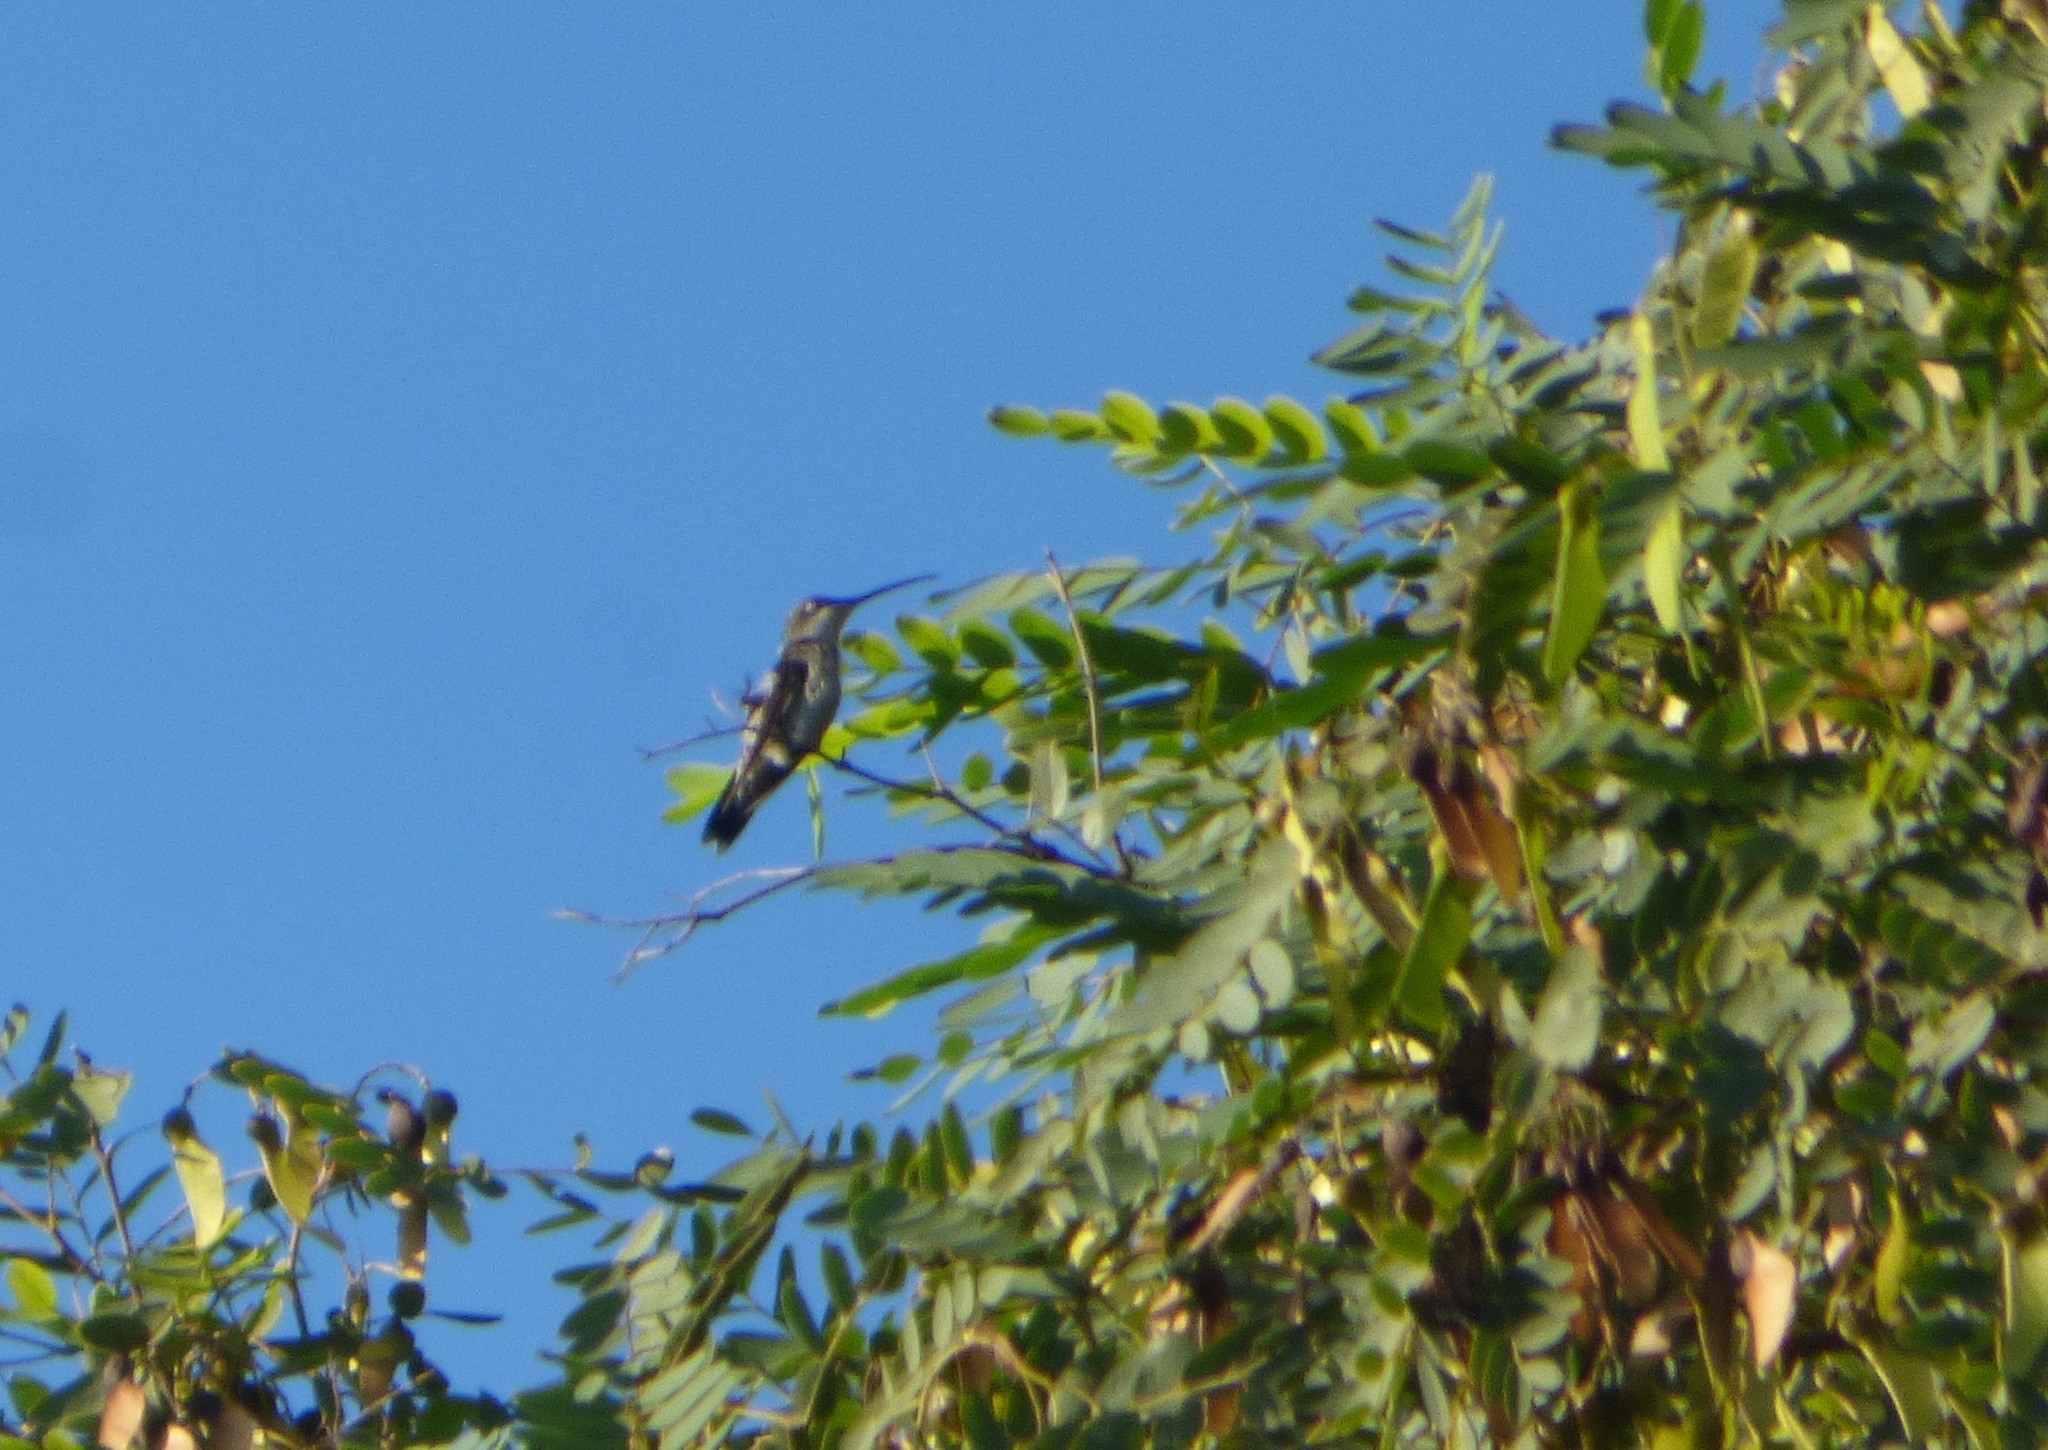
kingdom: Animalia
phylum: Chordata
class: Aves
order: Apodiformes
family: Trochilidae
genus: Heliomaster
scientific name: Heliomaster furcifer
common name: Blue-tufted starthroat
